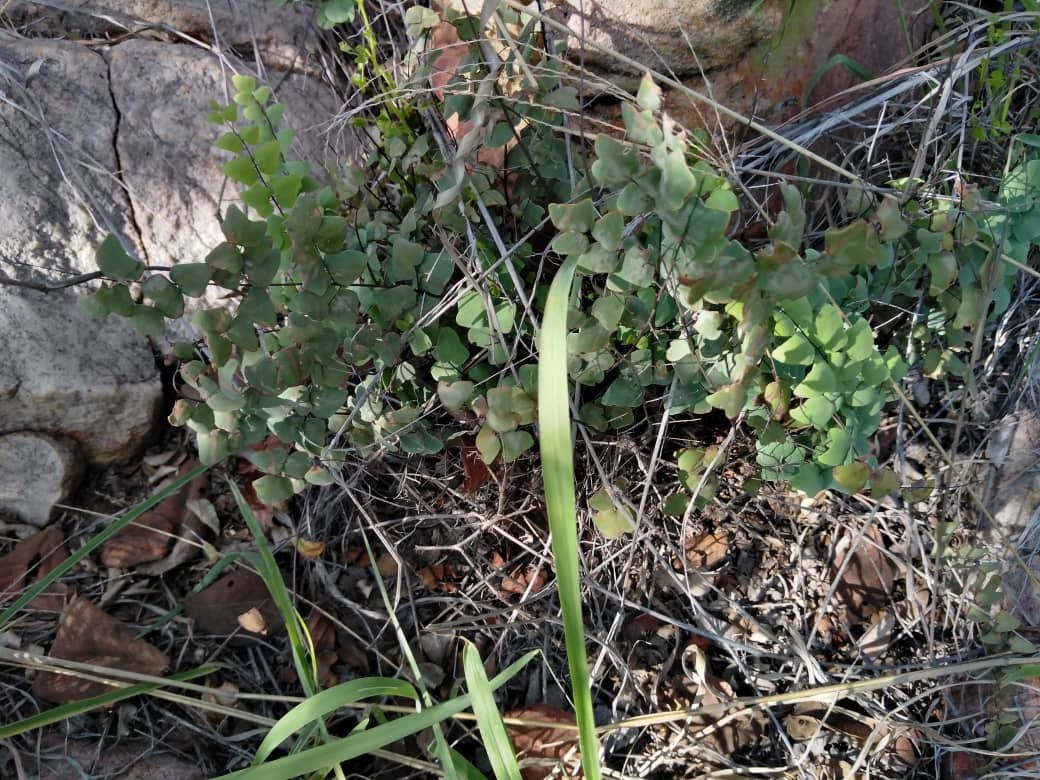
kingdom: Plantae
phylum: Tracheophyta
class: Polypodiopsida
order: Polypodiales
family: Pteridaceae
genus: Pellaea
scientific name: Pellaea calomelanos
